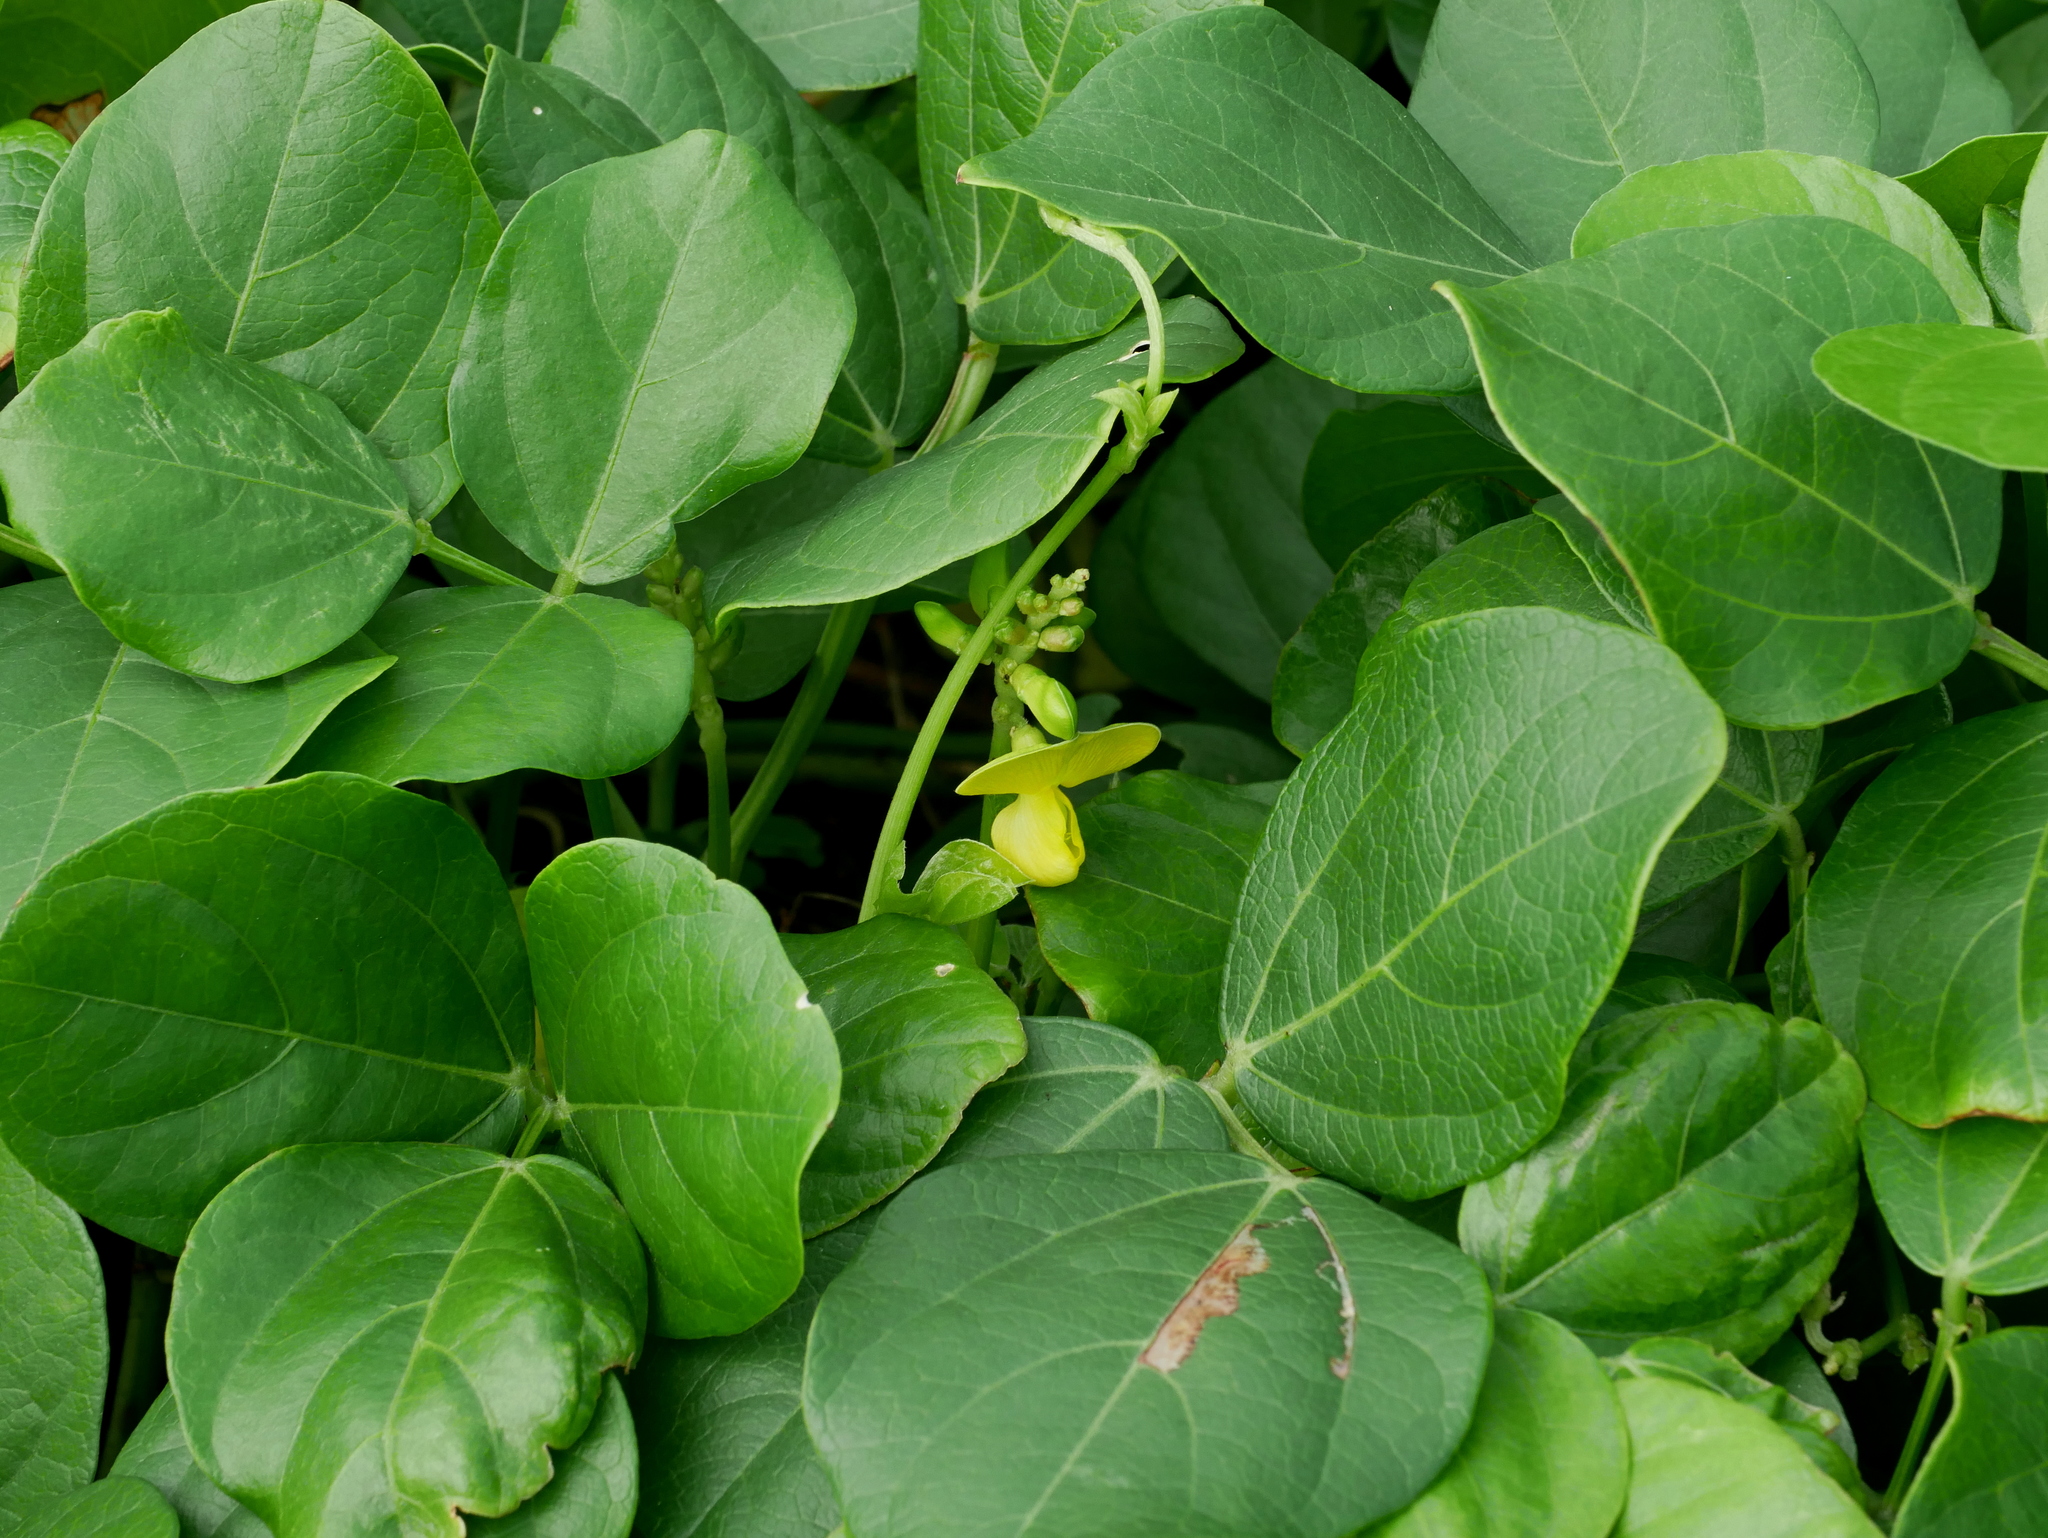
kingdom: Plantae
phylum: Tracheophyta
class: Magnoliopsida
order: Fabales
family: Fabaceae
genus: Vigna
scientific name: Vigna marina
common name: Dune-bean
